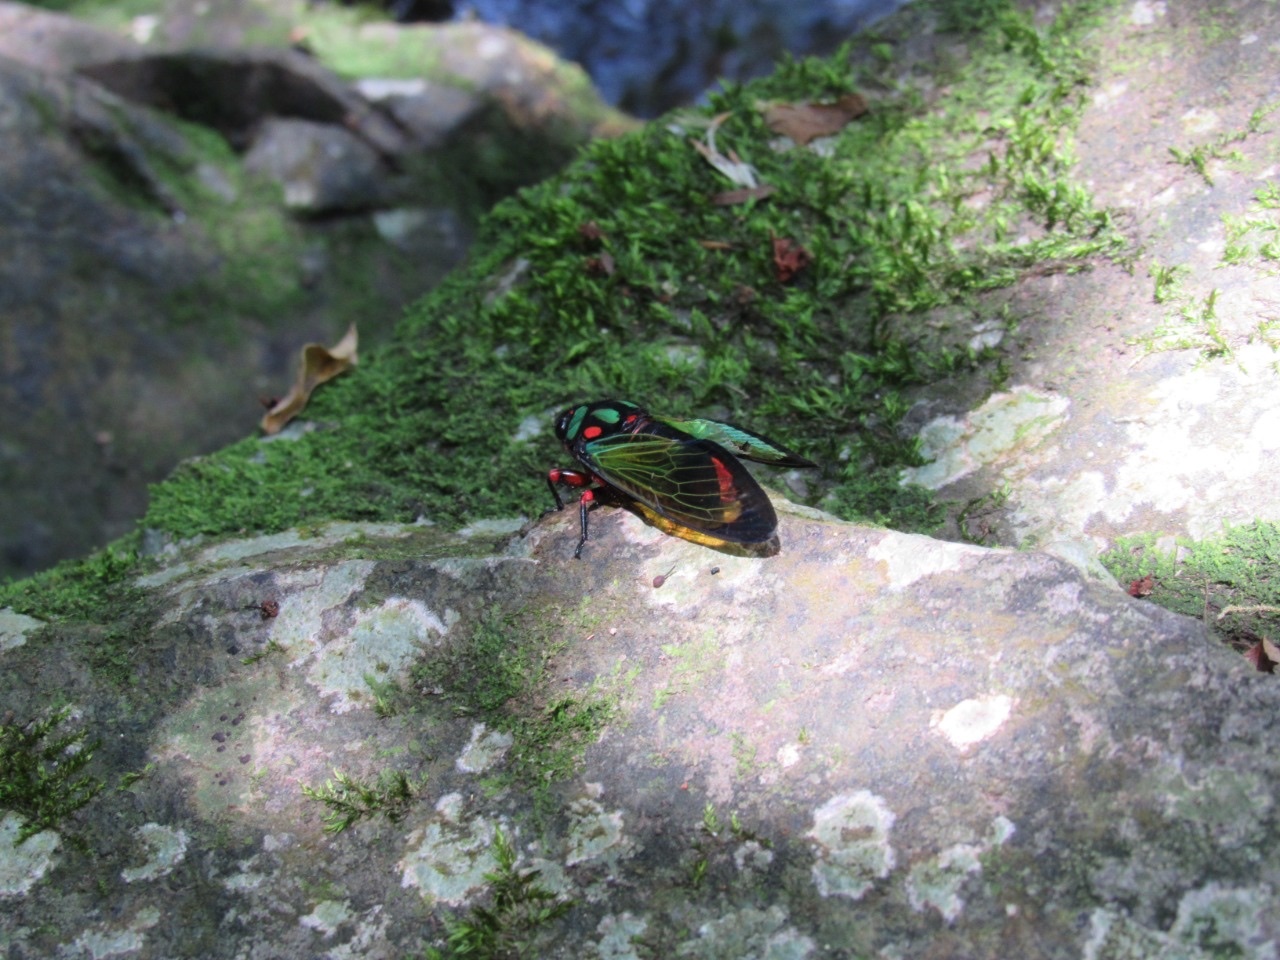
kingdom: Animalia
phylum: Arthropoda
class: Insecta
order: Hemiptera
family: Cicadidae
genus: Carineta
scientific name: Carineta diardi
